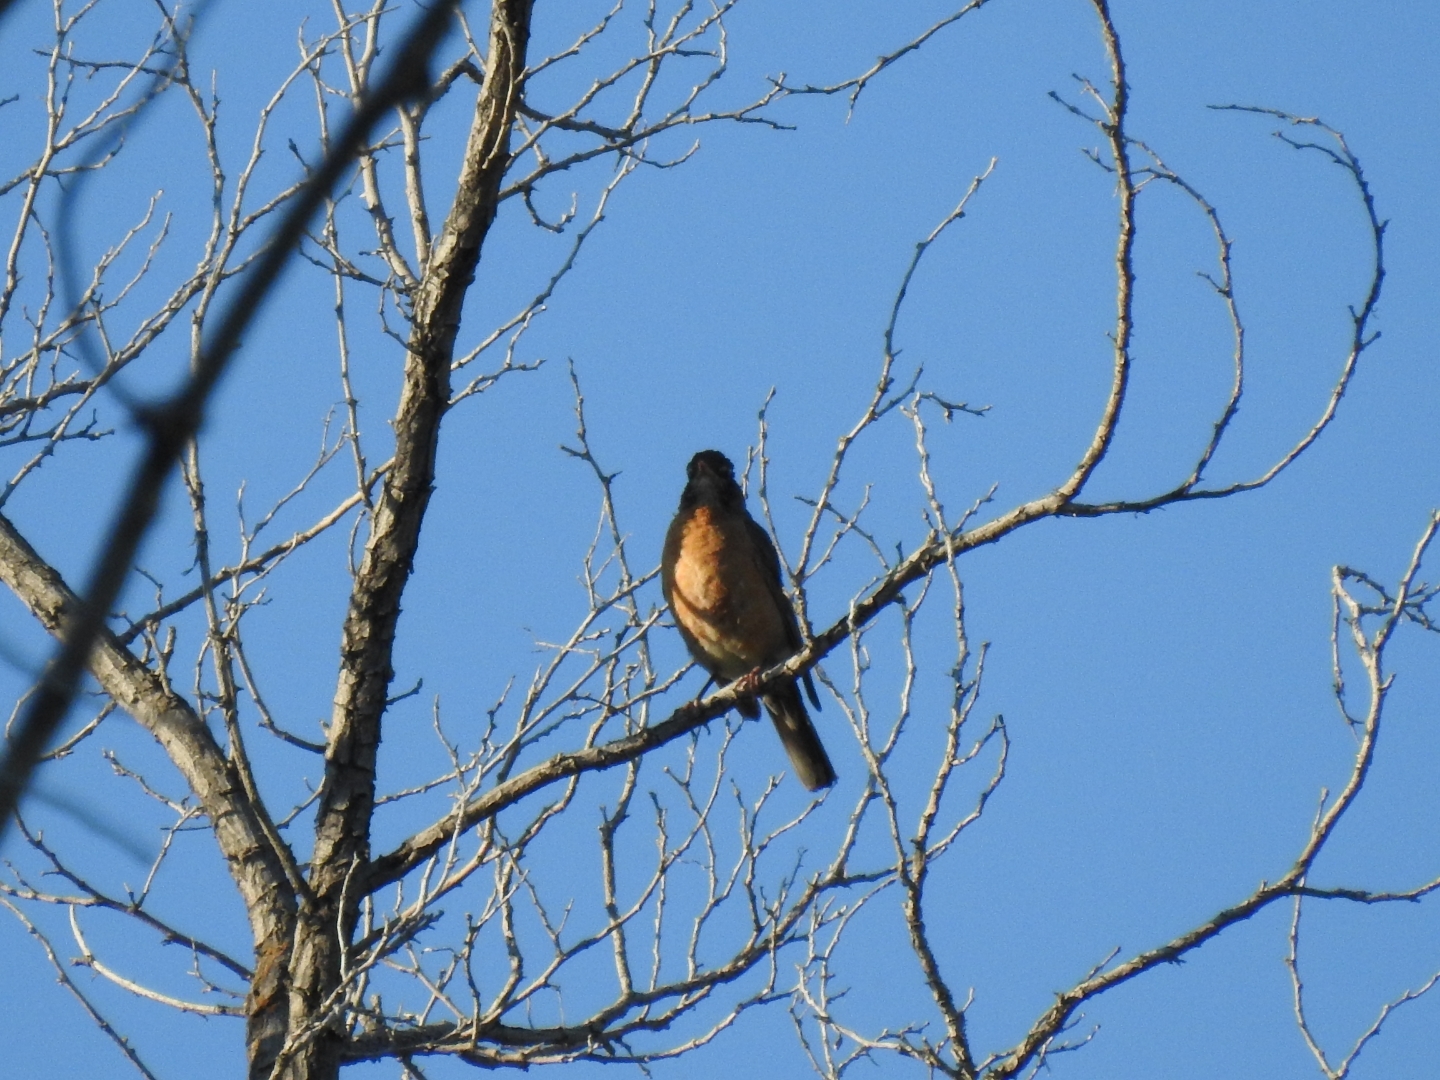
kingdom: Animalia
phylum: Chordata
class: Aves
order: Passeriformes
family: Turdidae
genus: Turdus
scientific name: Turdus migratorius
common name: American robin
